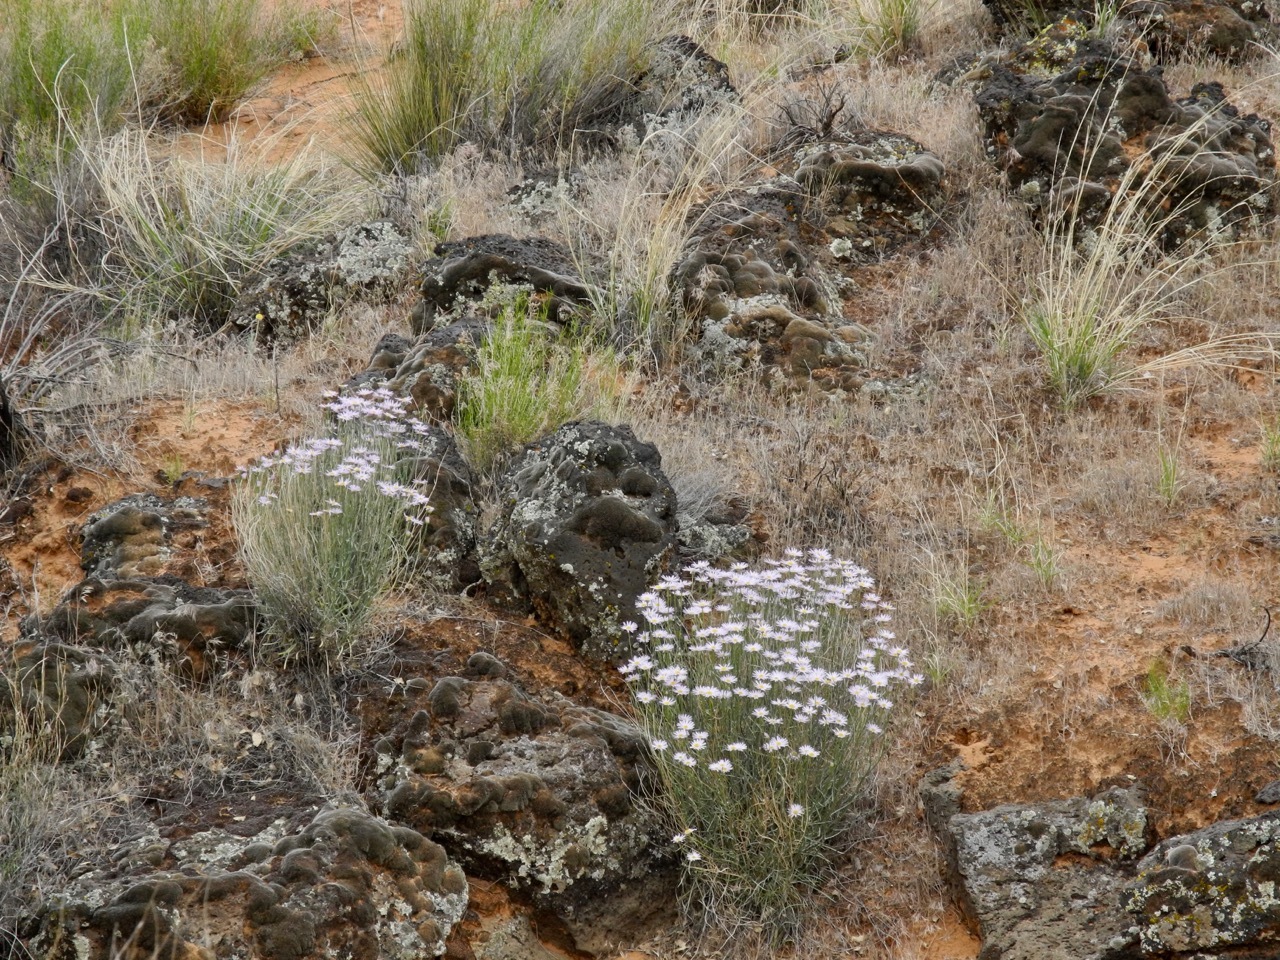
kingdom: Plantae
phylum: Tracheophyta
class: Magnoliopsida
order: Asterales
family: Asteraceae
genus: Erigeron
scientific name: Erigeron utahensis
